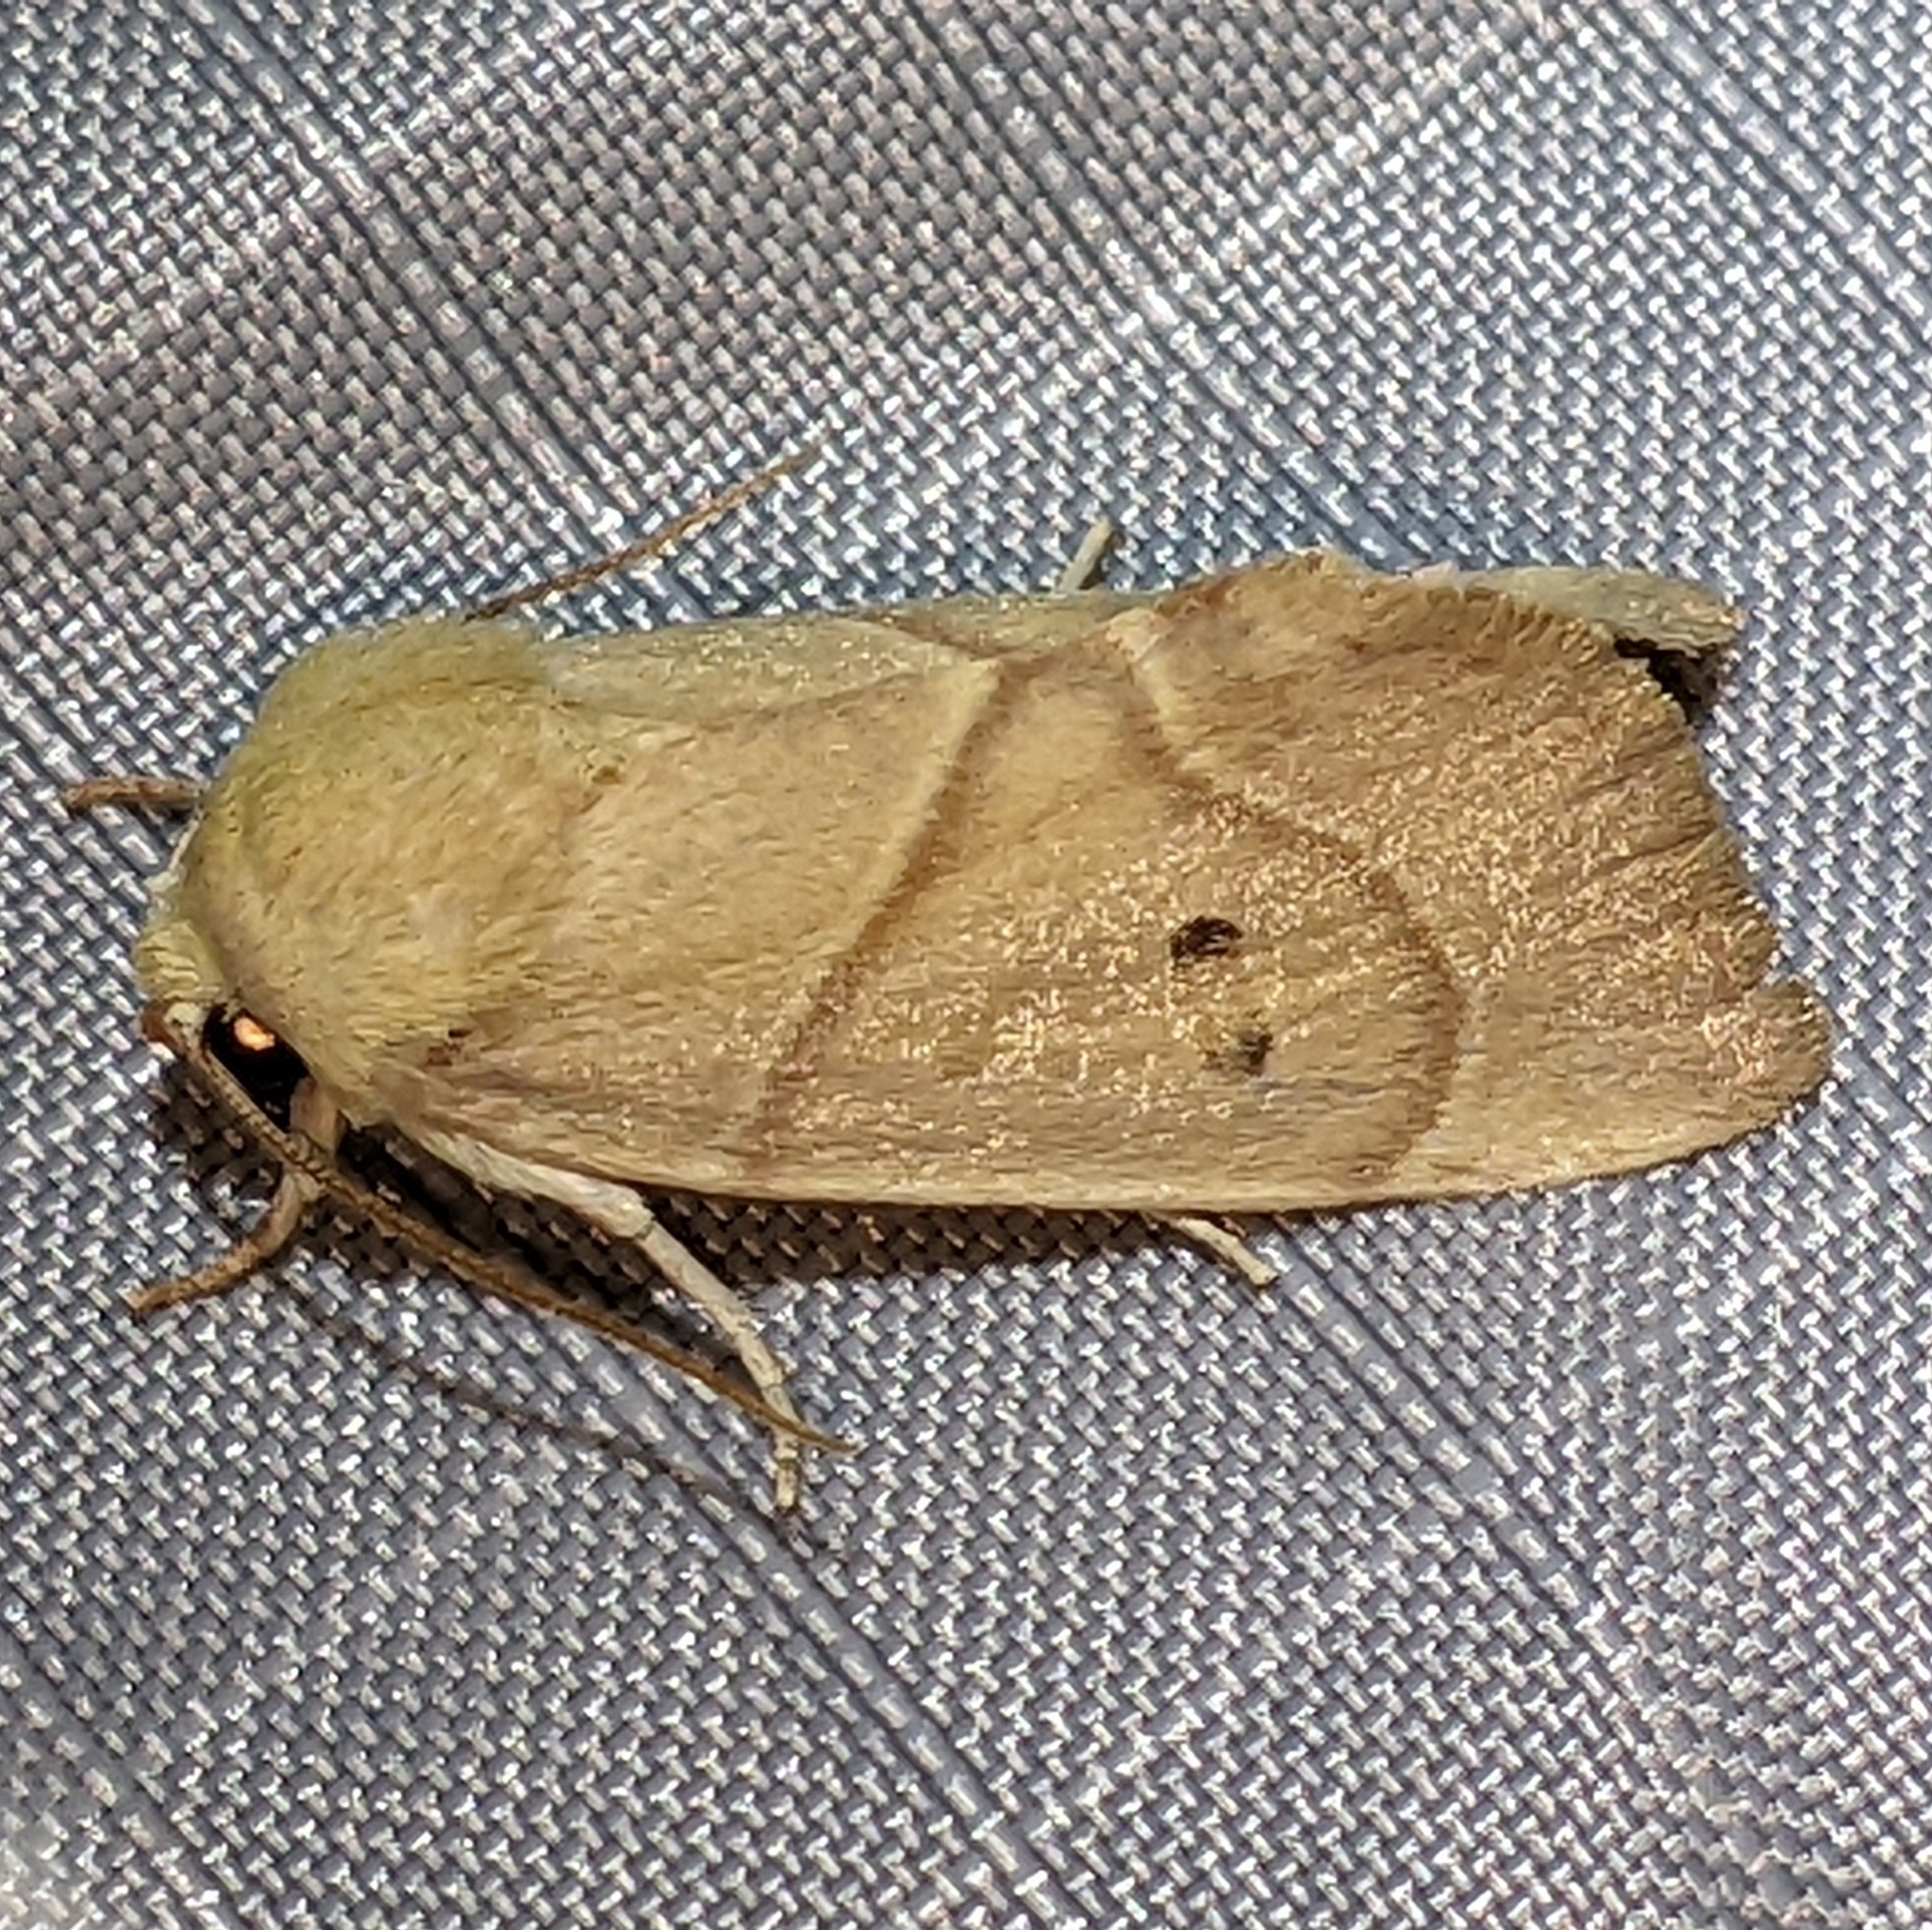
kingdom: Animalia
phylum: Arthropoda
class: Insecta
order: Lepidoptera
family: Noctuidae
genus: Cosmia
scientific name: Cosmia calami
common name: American dun-bar moth
